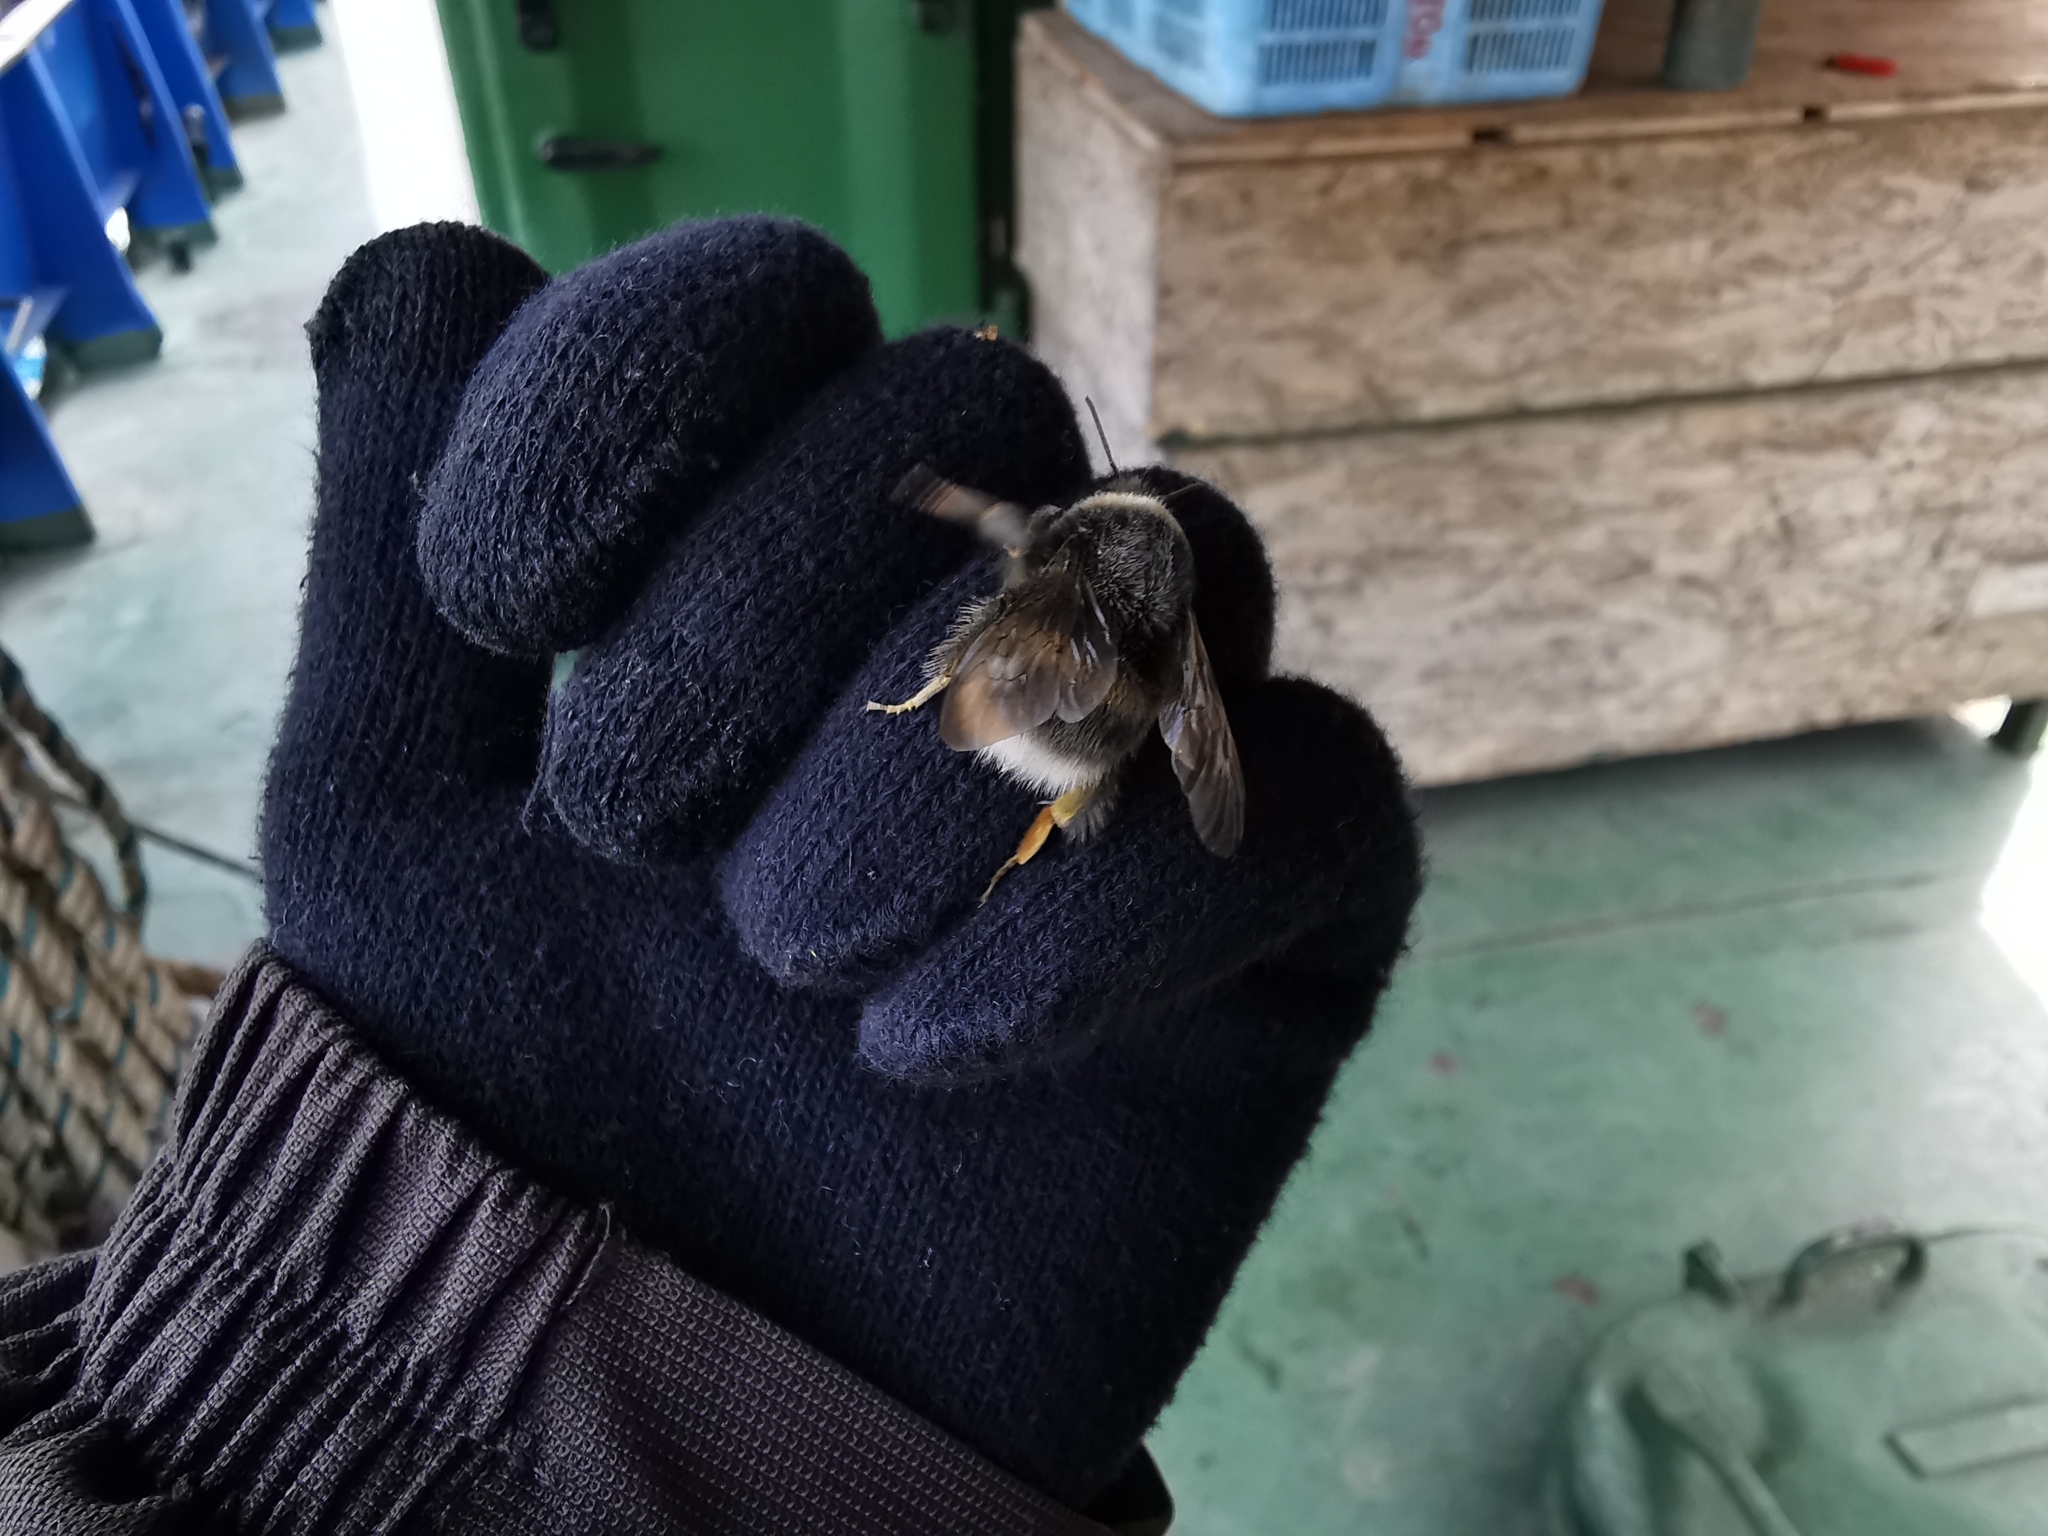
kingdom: Animalia
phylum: Arthropoda
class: Insecta
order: Hymenoptera
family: Apidae
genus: Bombus
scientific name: Bombus cryptarum
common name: Cryptic bumblebee
